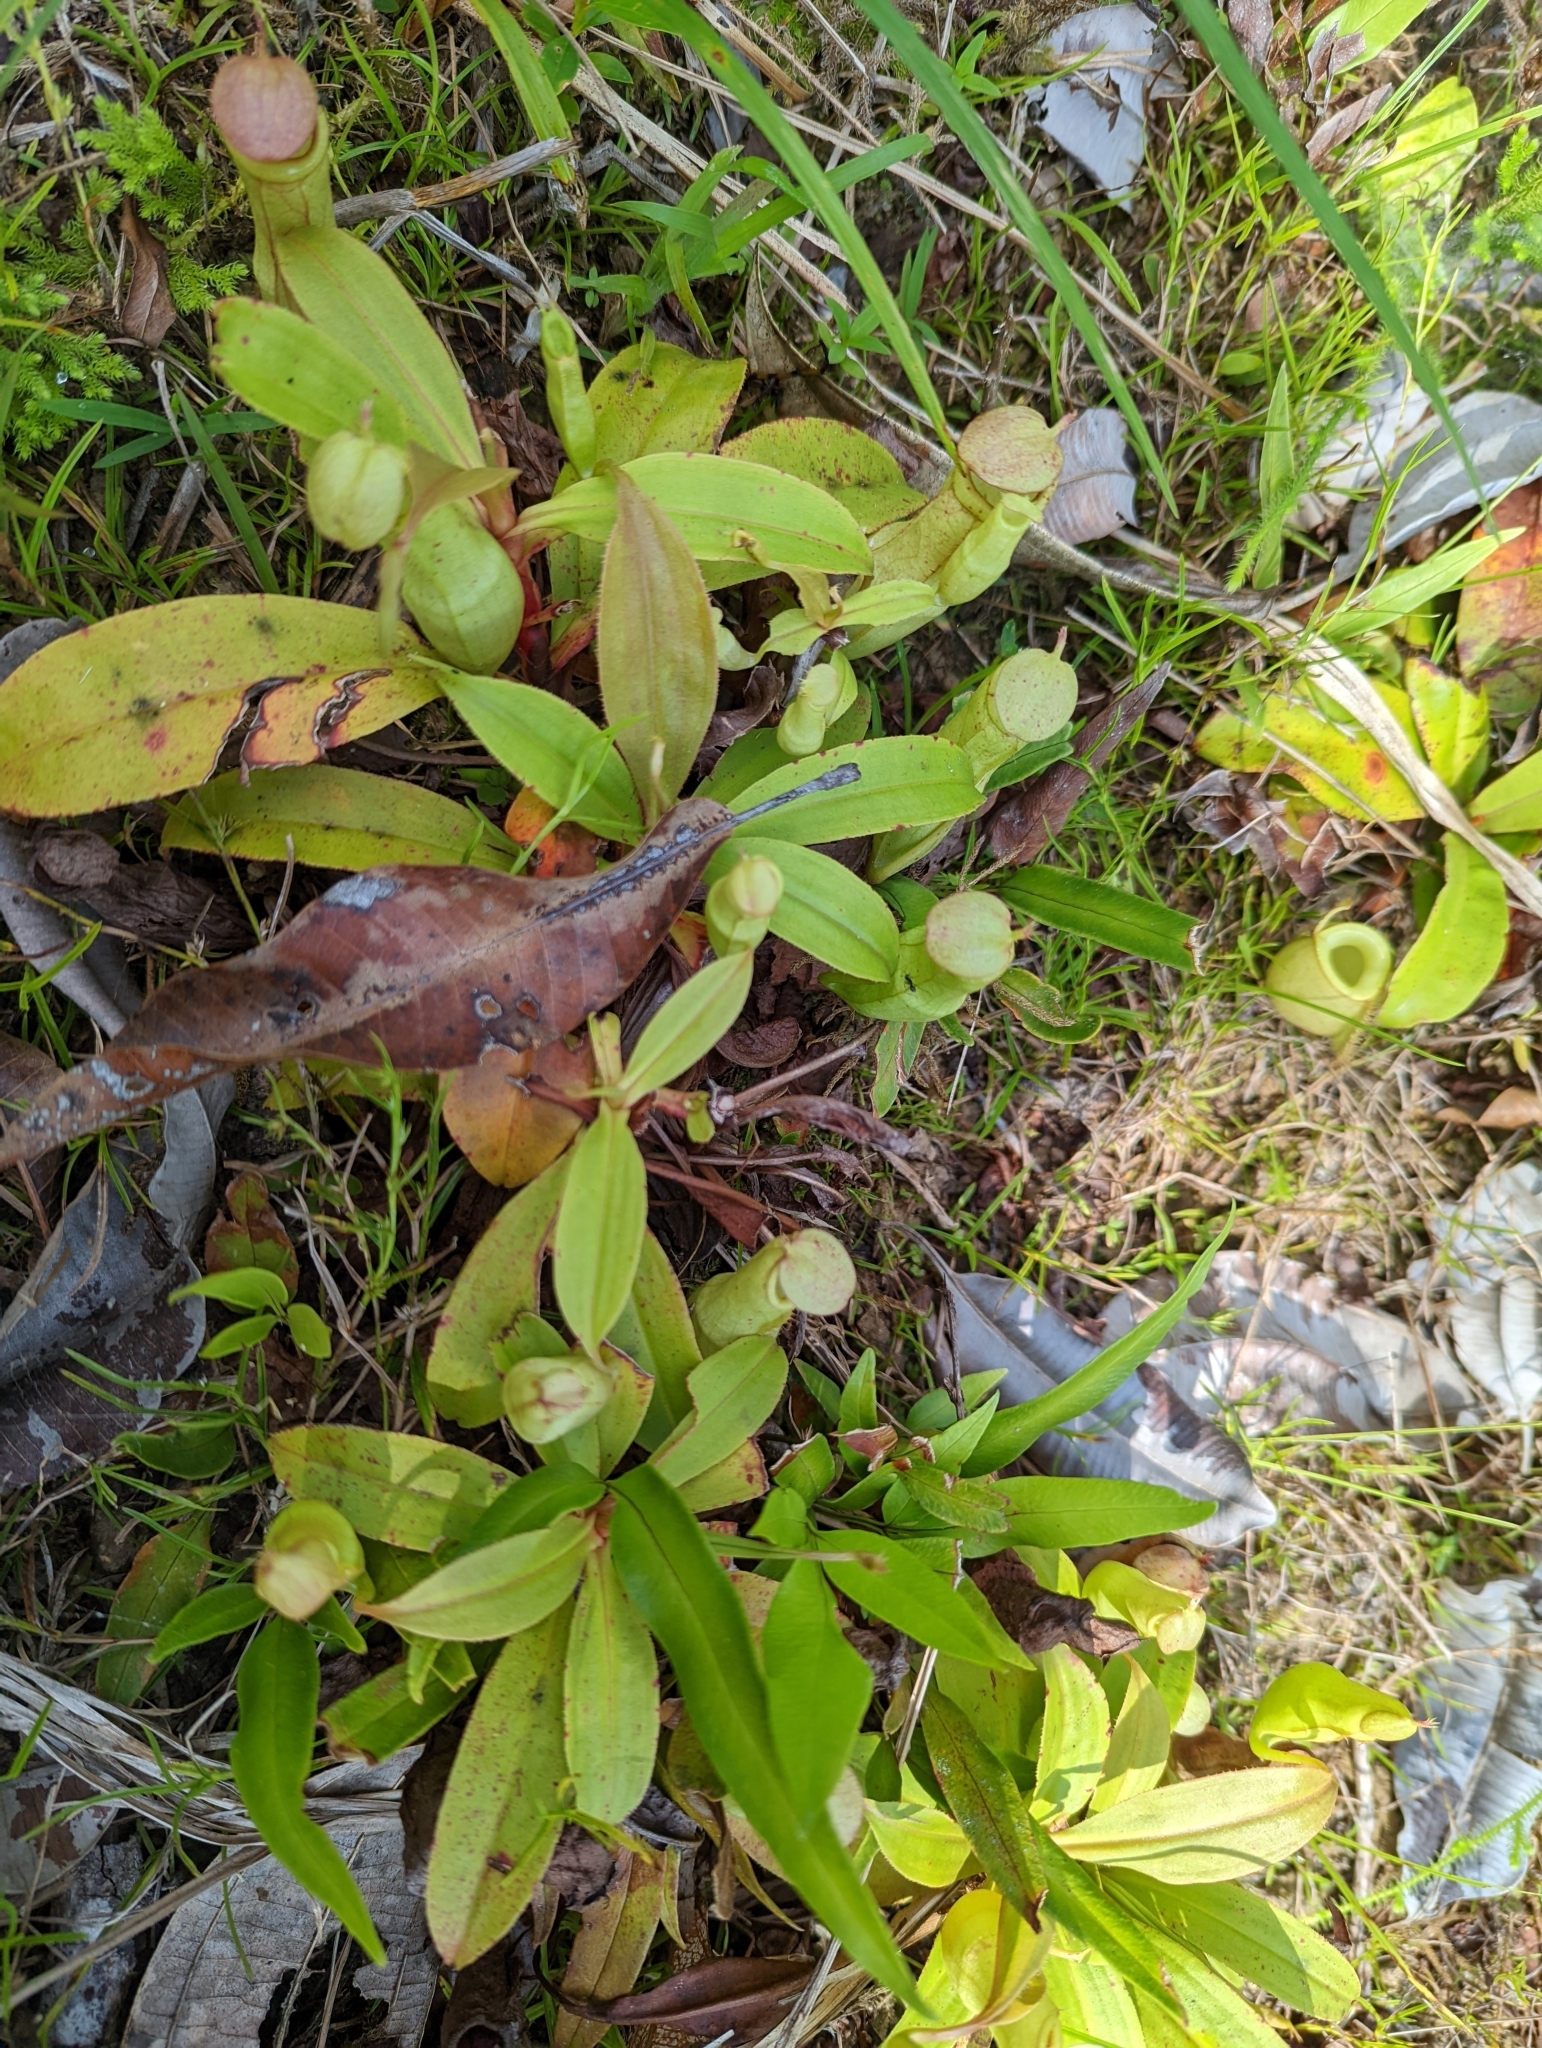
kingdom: Plantae
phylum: Tracheophyta
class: Magnoliopsida
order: Caryophyllales
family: Nepenthaceae
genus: Nepenthes
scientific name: Nepenthes mirabilis
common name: Tropical pitcherplant
